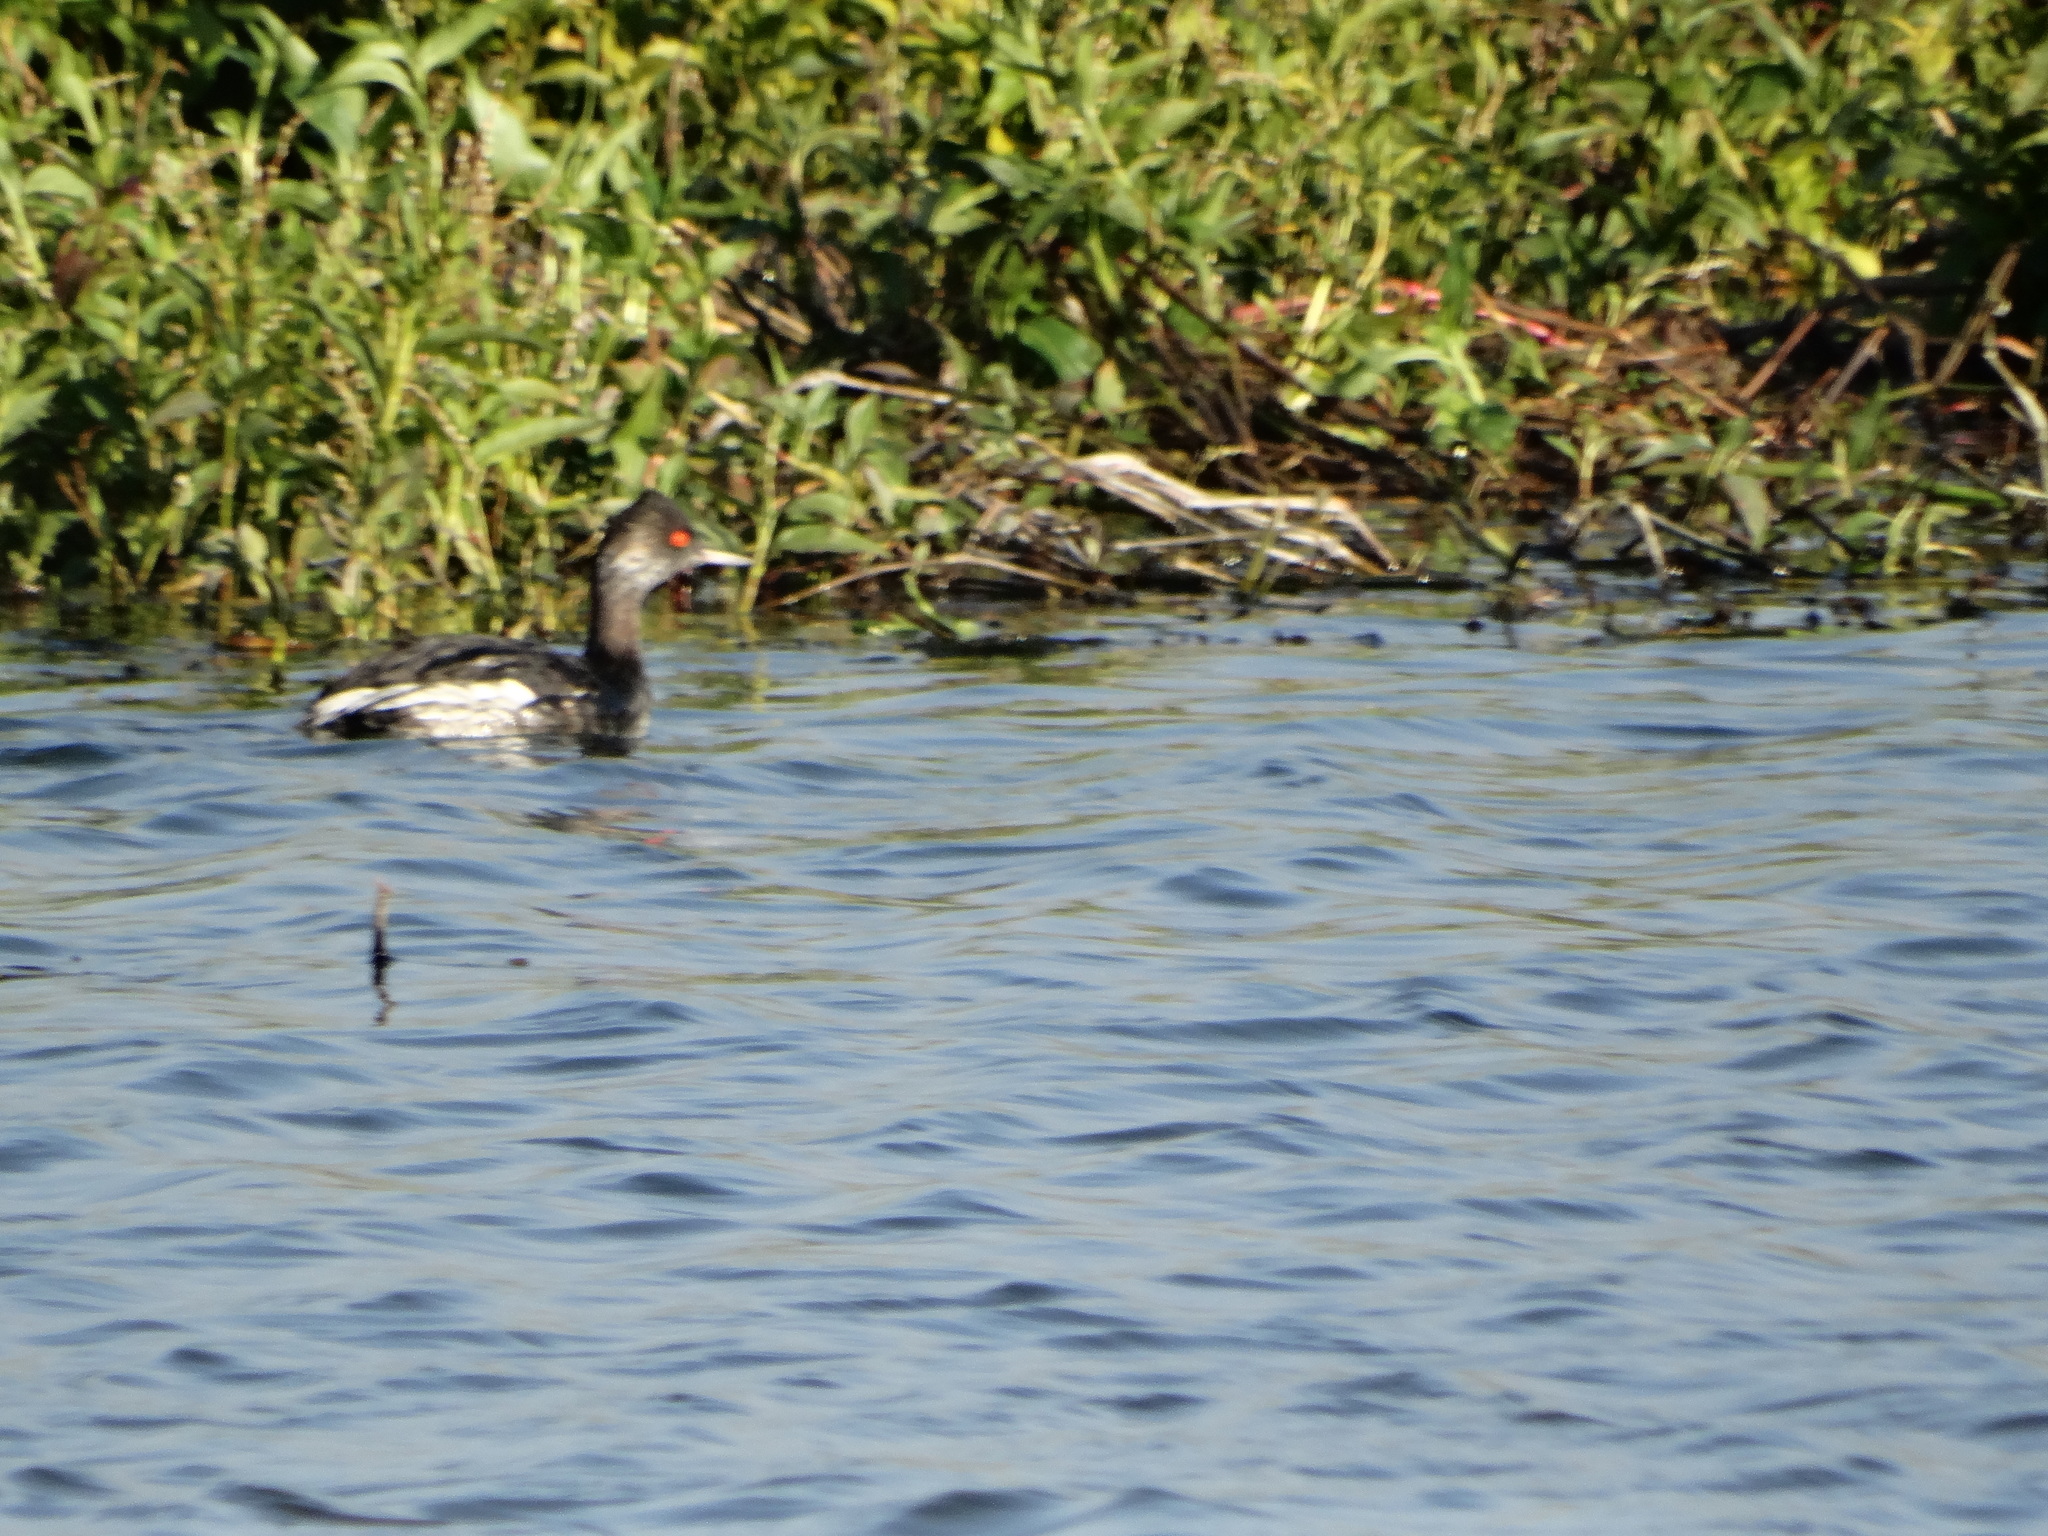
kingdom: Animalia
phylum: Chordata
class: Aves
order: Podicipediformes
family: Podicipedidae
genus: Podiceps
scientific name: Podiceps nigricollis
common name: Black-necked grebe
